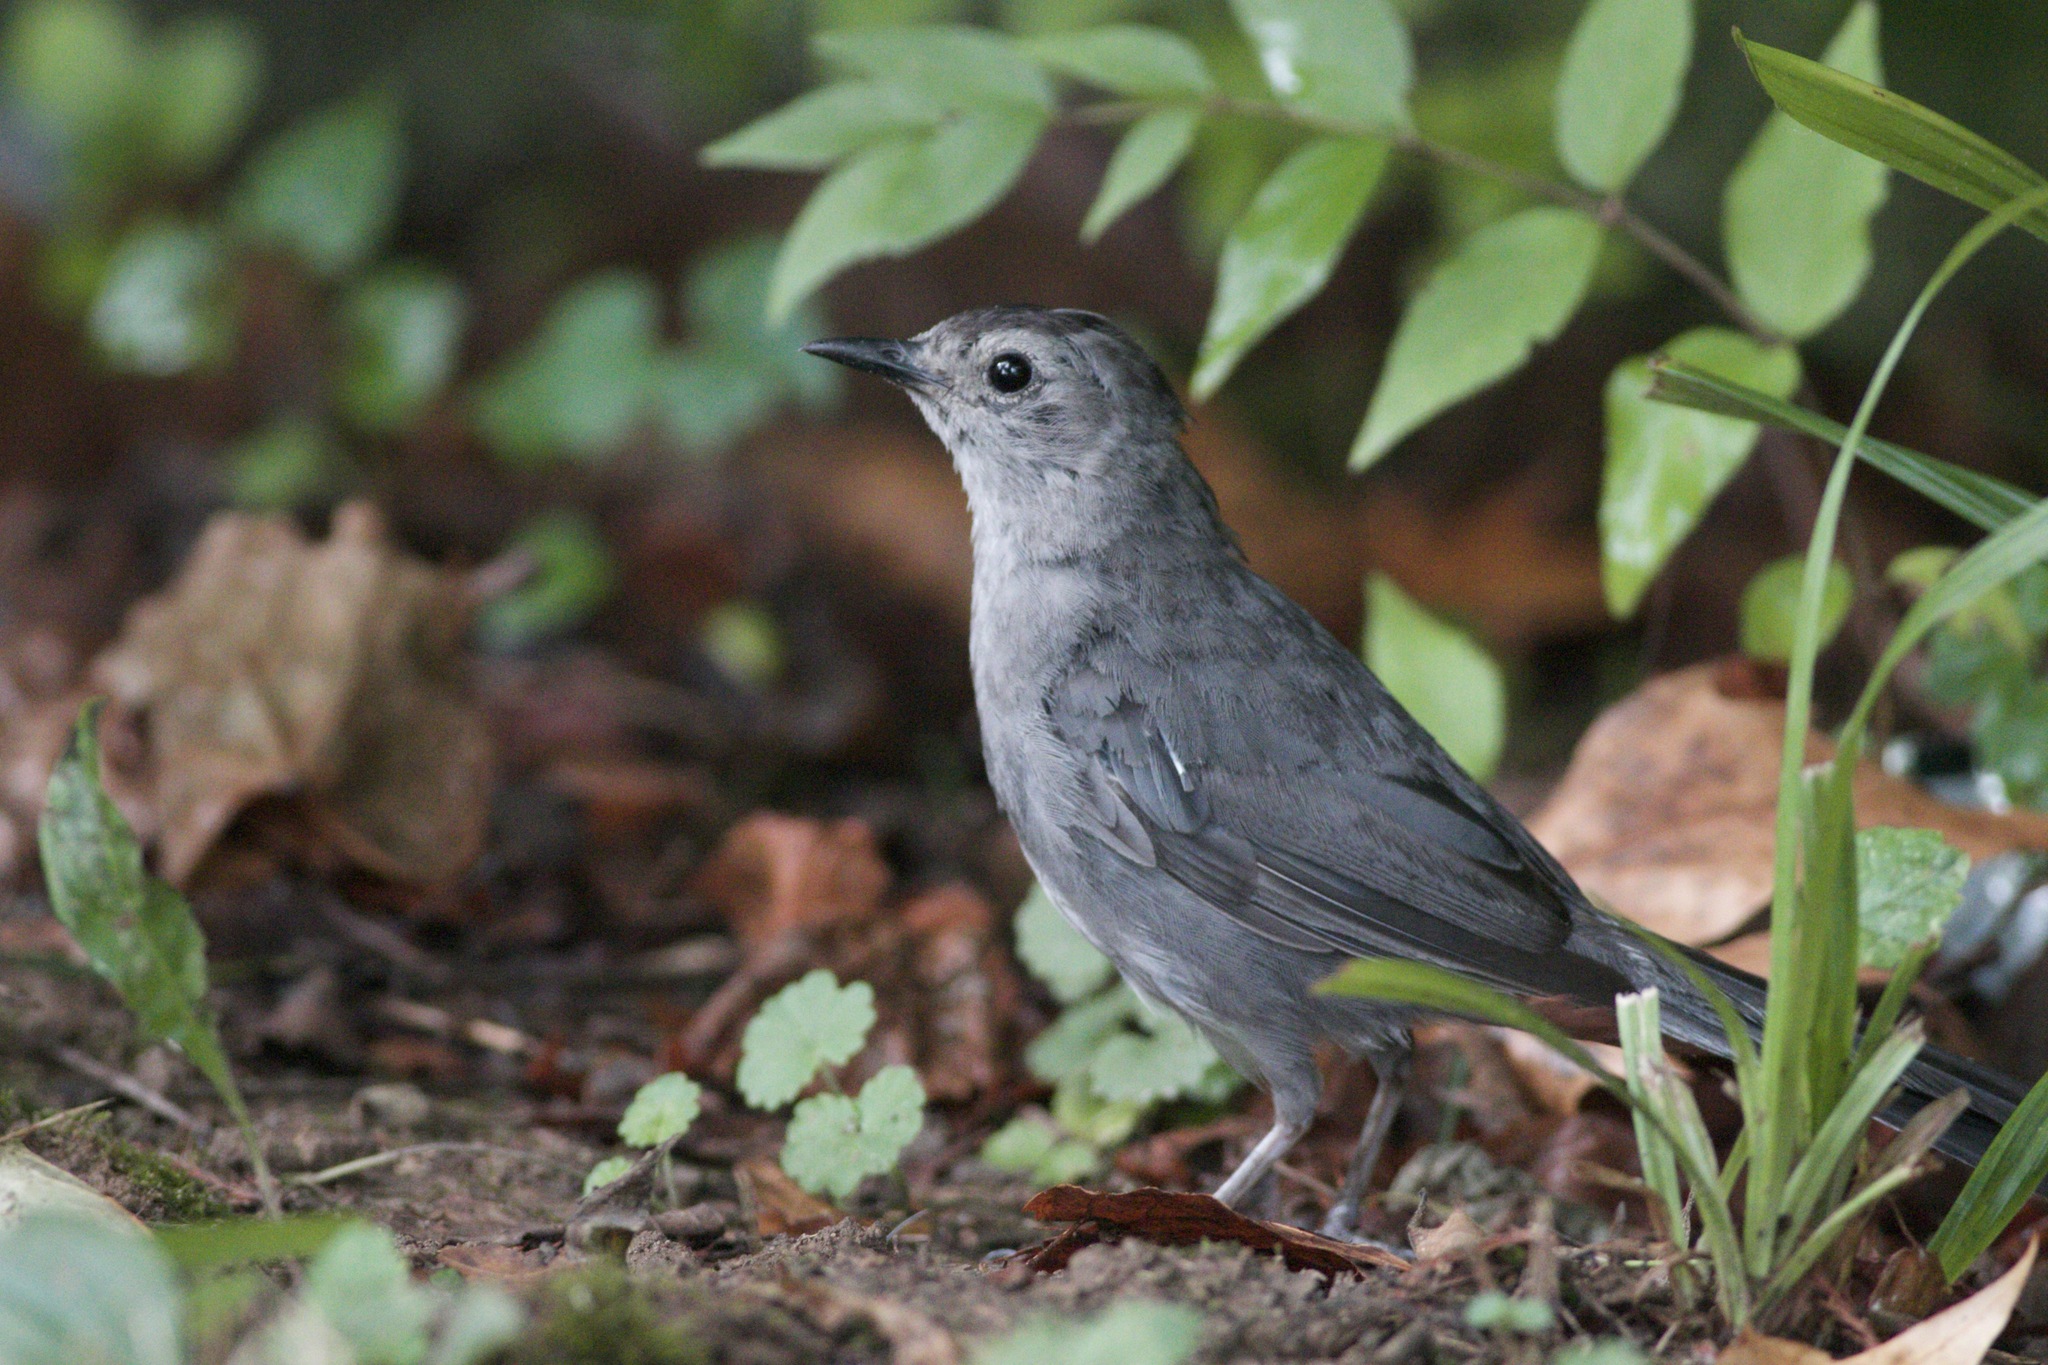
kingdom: Animalia
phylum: Chordata
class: Aves
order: Passeriformes
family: Mimidae
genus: Dumetella
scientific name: Dumetella carolinensis
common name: Gray catbird
